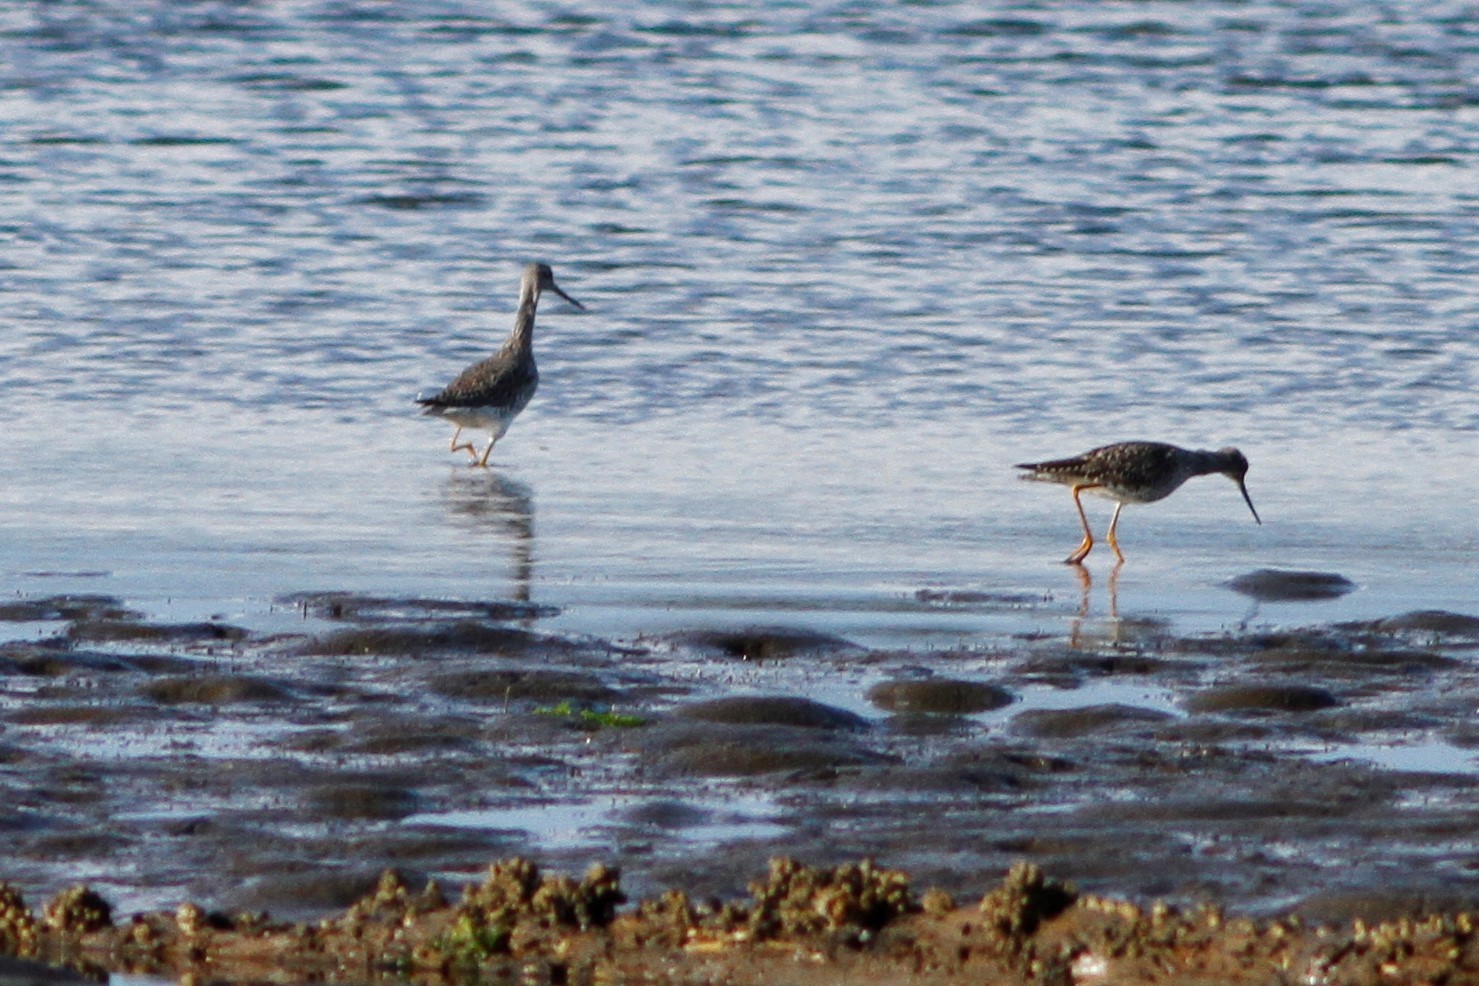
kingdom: Animalia
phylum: Chordata
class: Aves
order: Charadriiformes
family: Scolopacidae
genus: Tringa
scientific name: Tringa melanoleuca
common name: Greater yellowlegs
